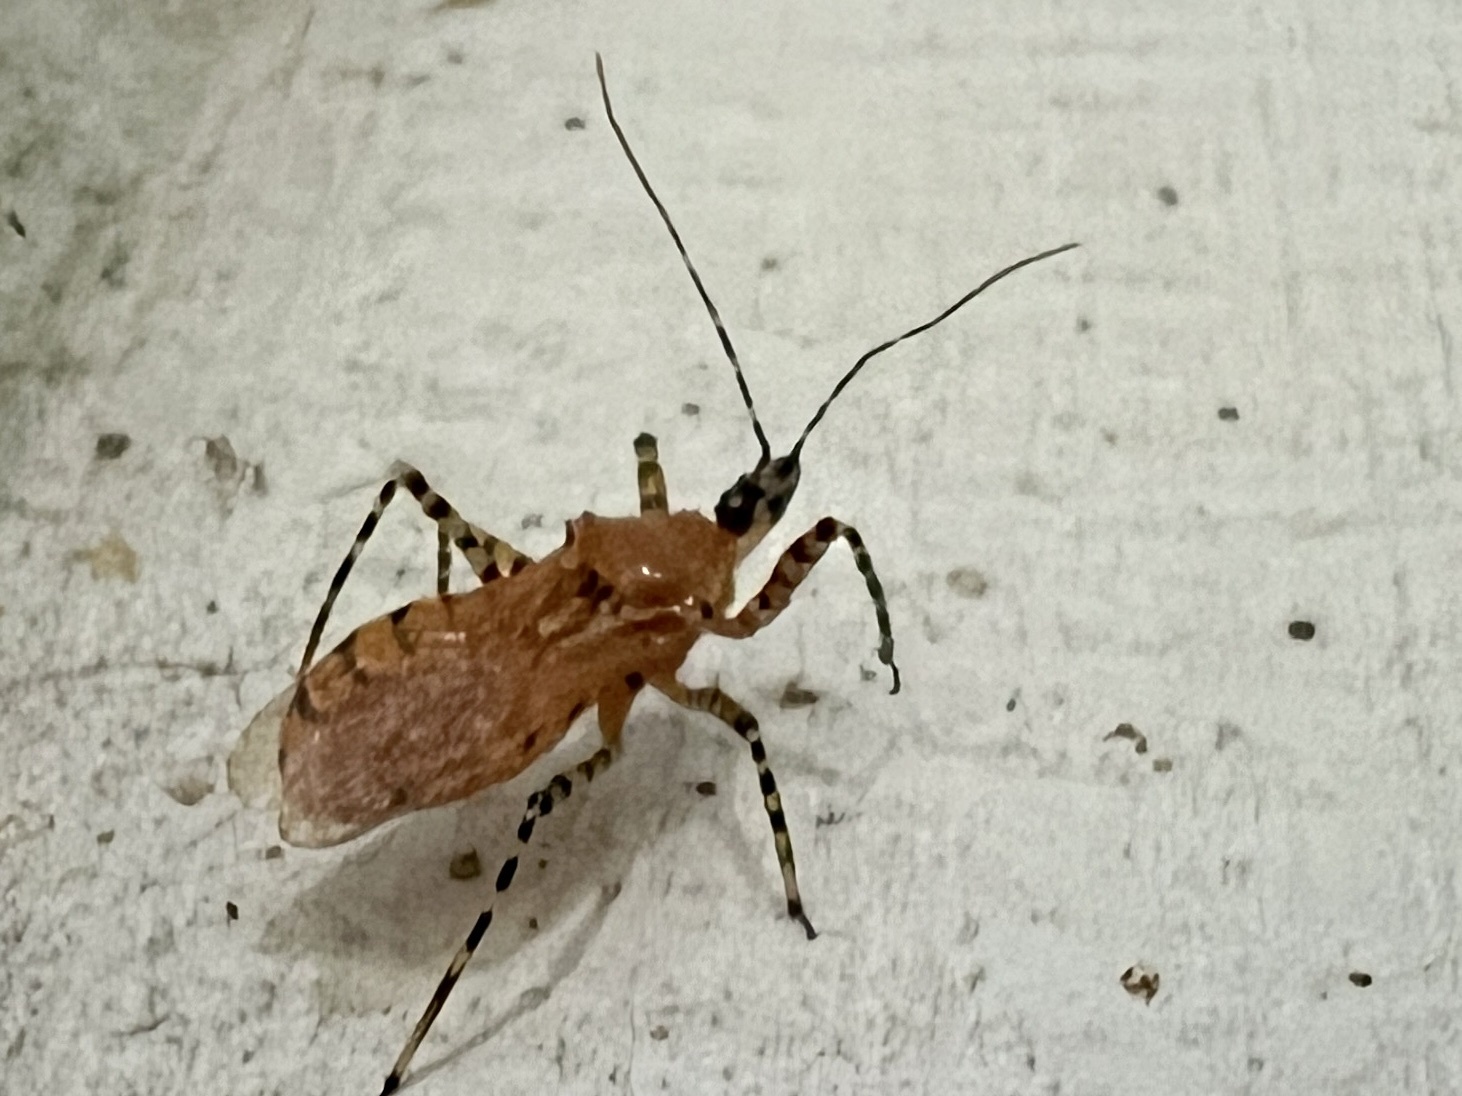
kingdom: Animalia
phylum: Arthropoda
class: Insecta
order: Hemiptera
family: Reduviidae
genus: Pselliopus
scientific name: Pselliopus barberi
